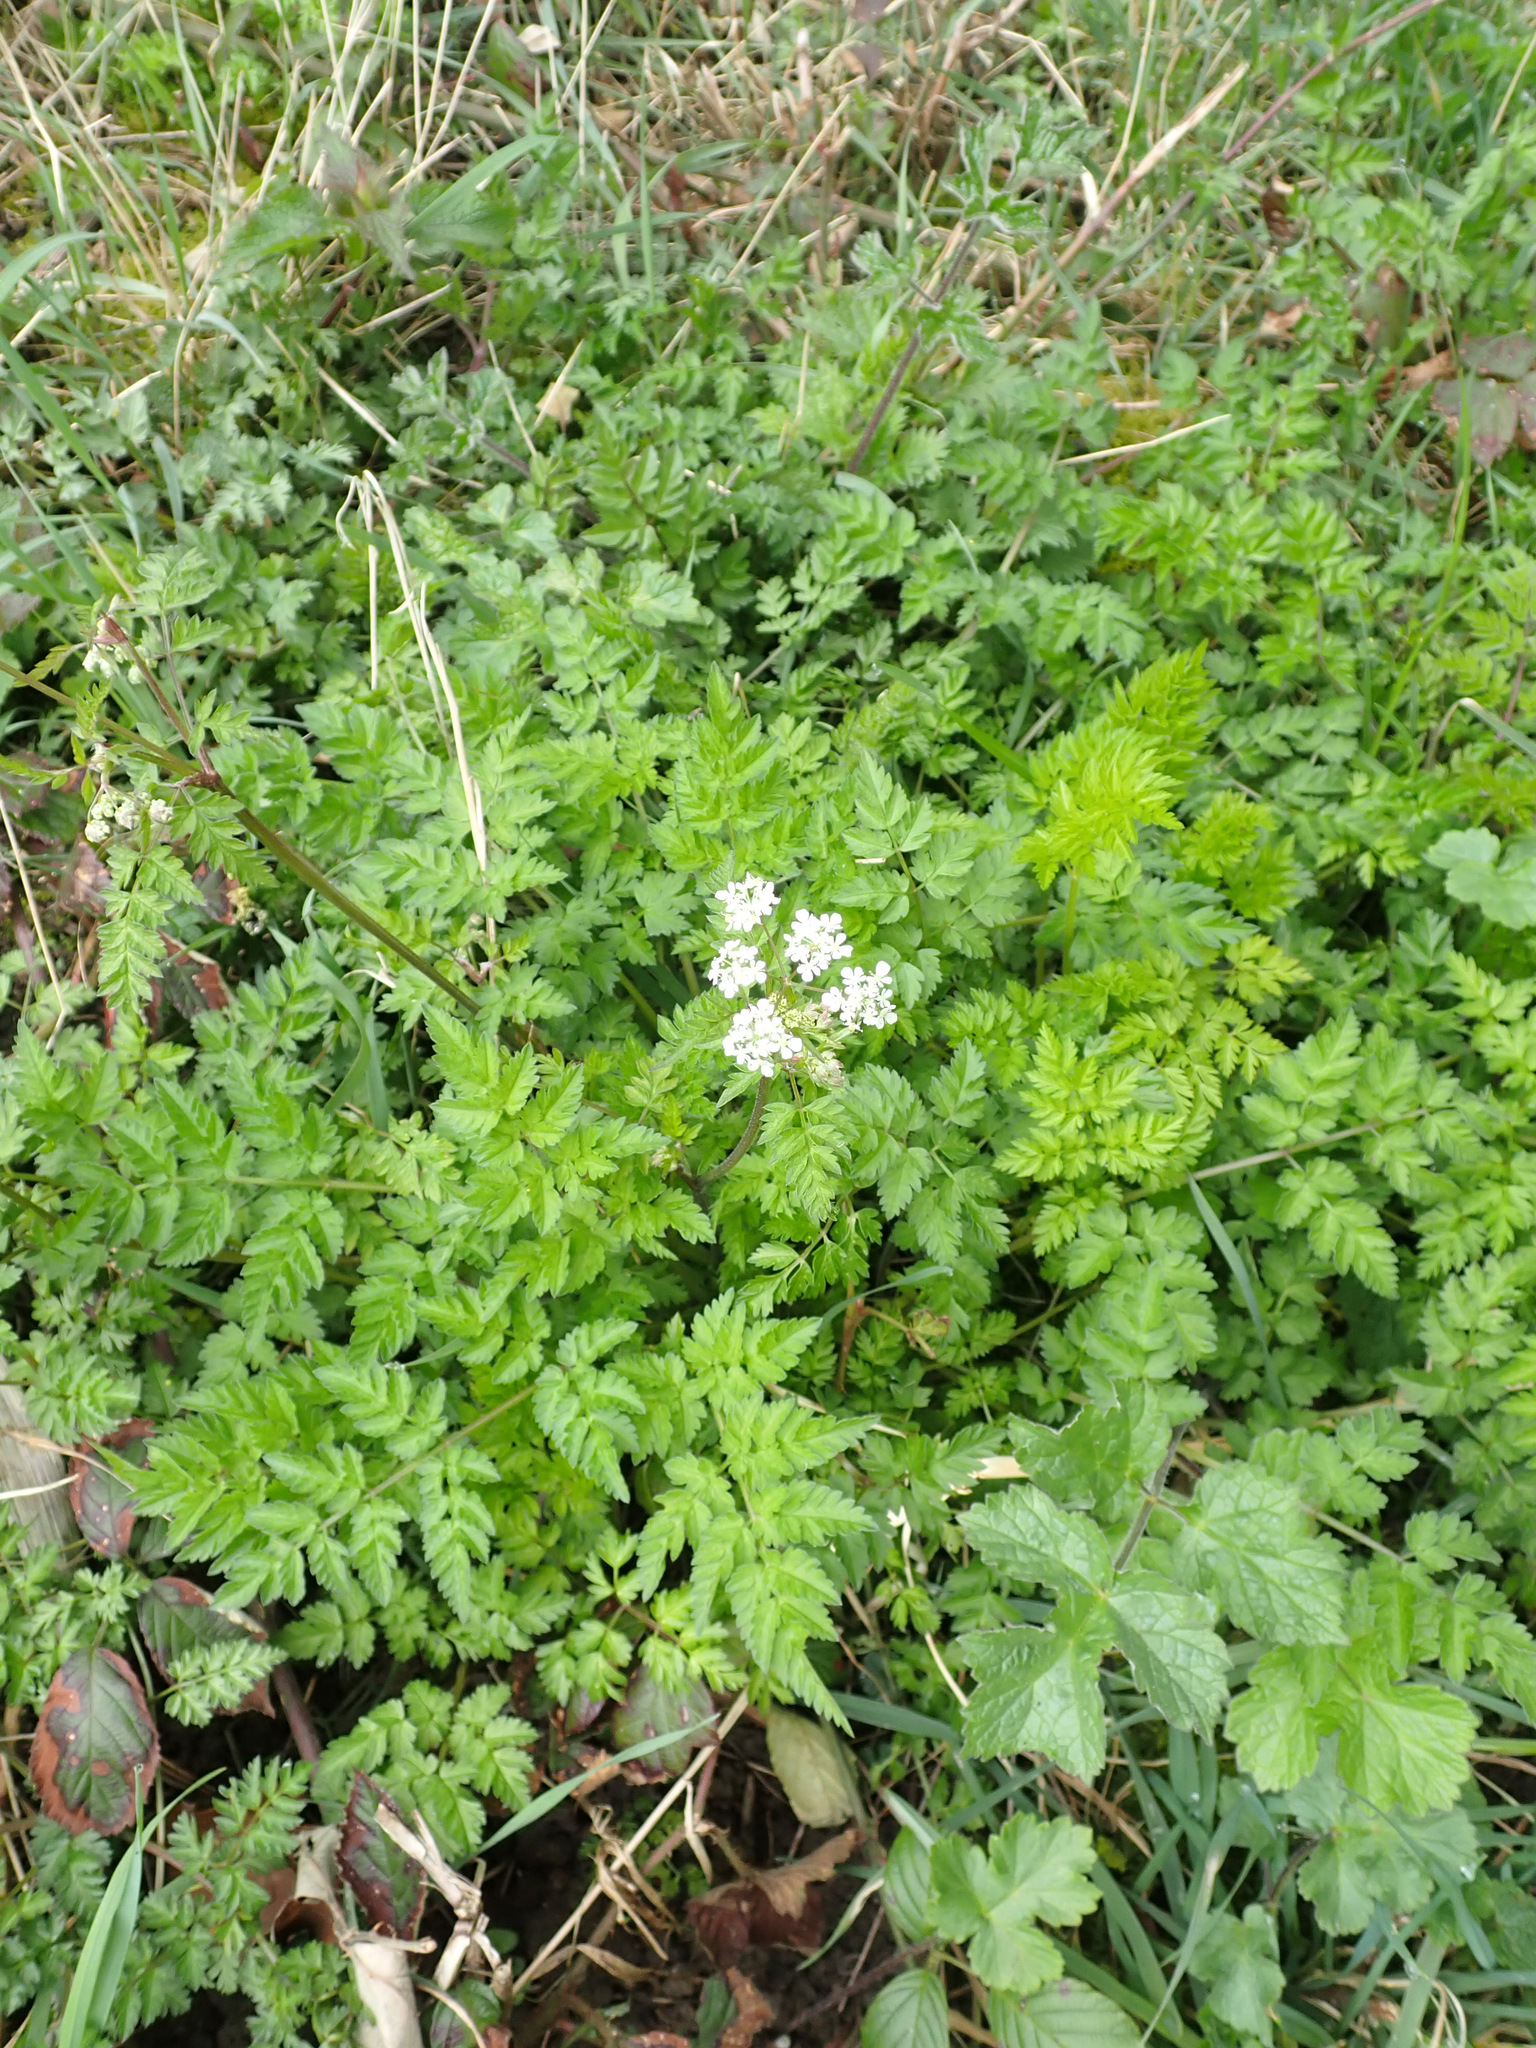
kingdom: Plantae
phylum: Tracheophyta
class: Magnoliopsida
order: Apiales
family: Apiaceae
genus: Anthriscus
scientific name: Anthriscus sylvestris
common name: Cow parsley
